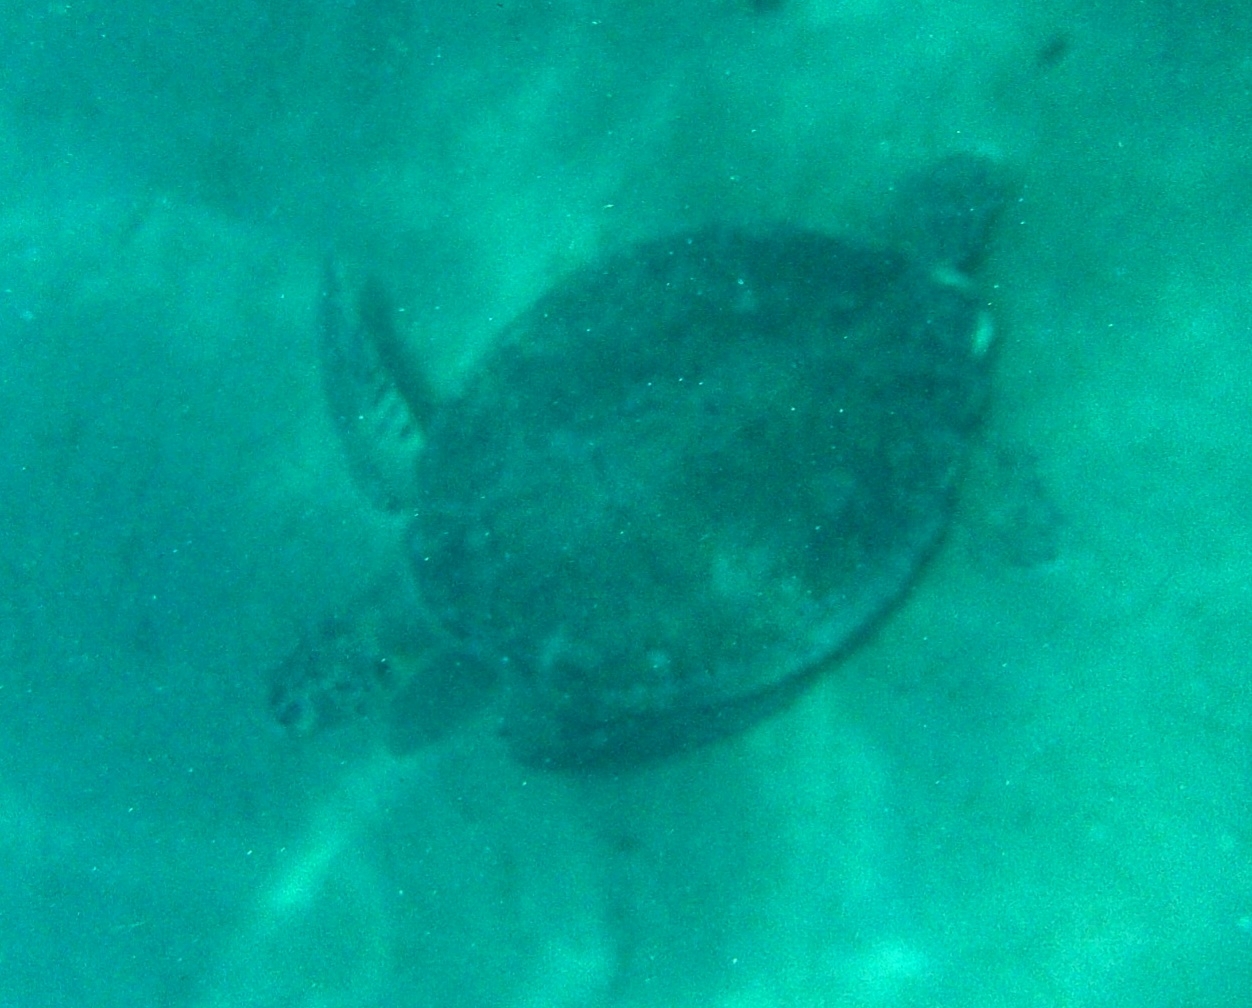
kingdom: Animalia
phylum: Chordata
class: Testudines
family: Cheloniidae
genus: Chelonia
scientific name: Chelonia mydas
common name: Green turtle
